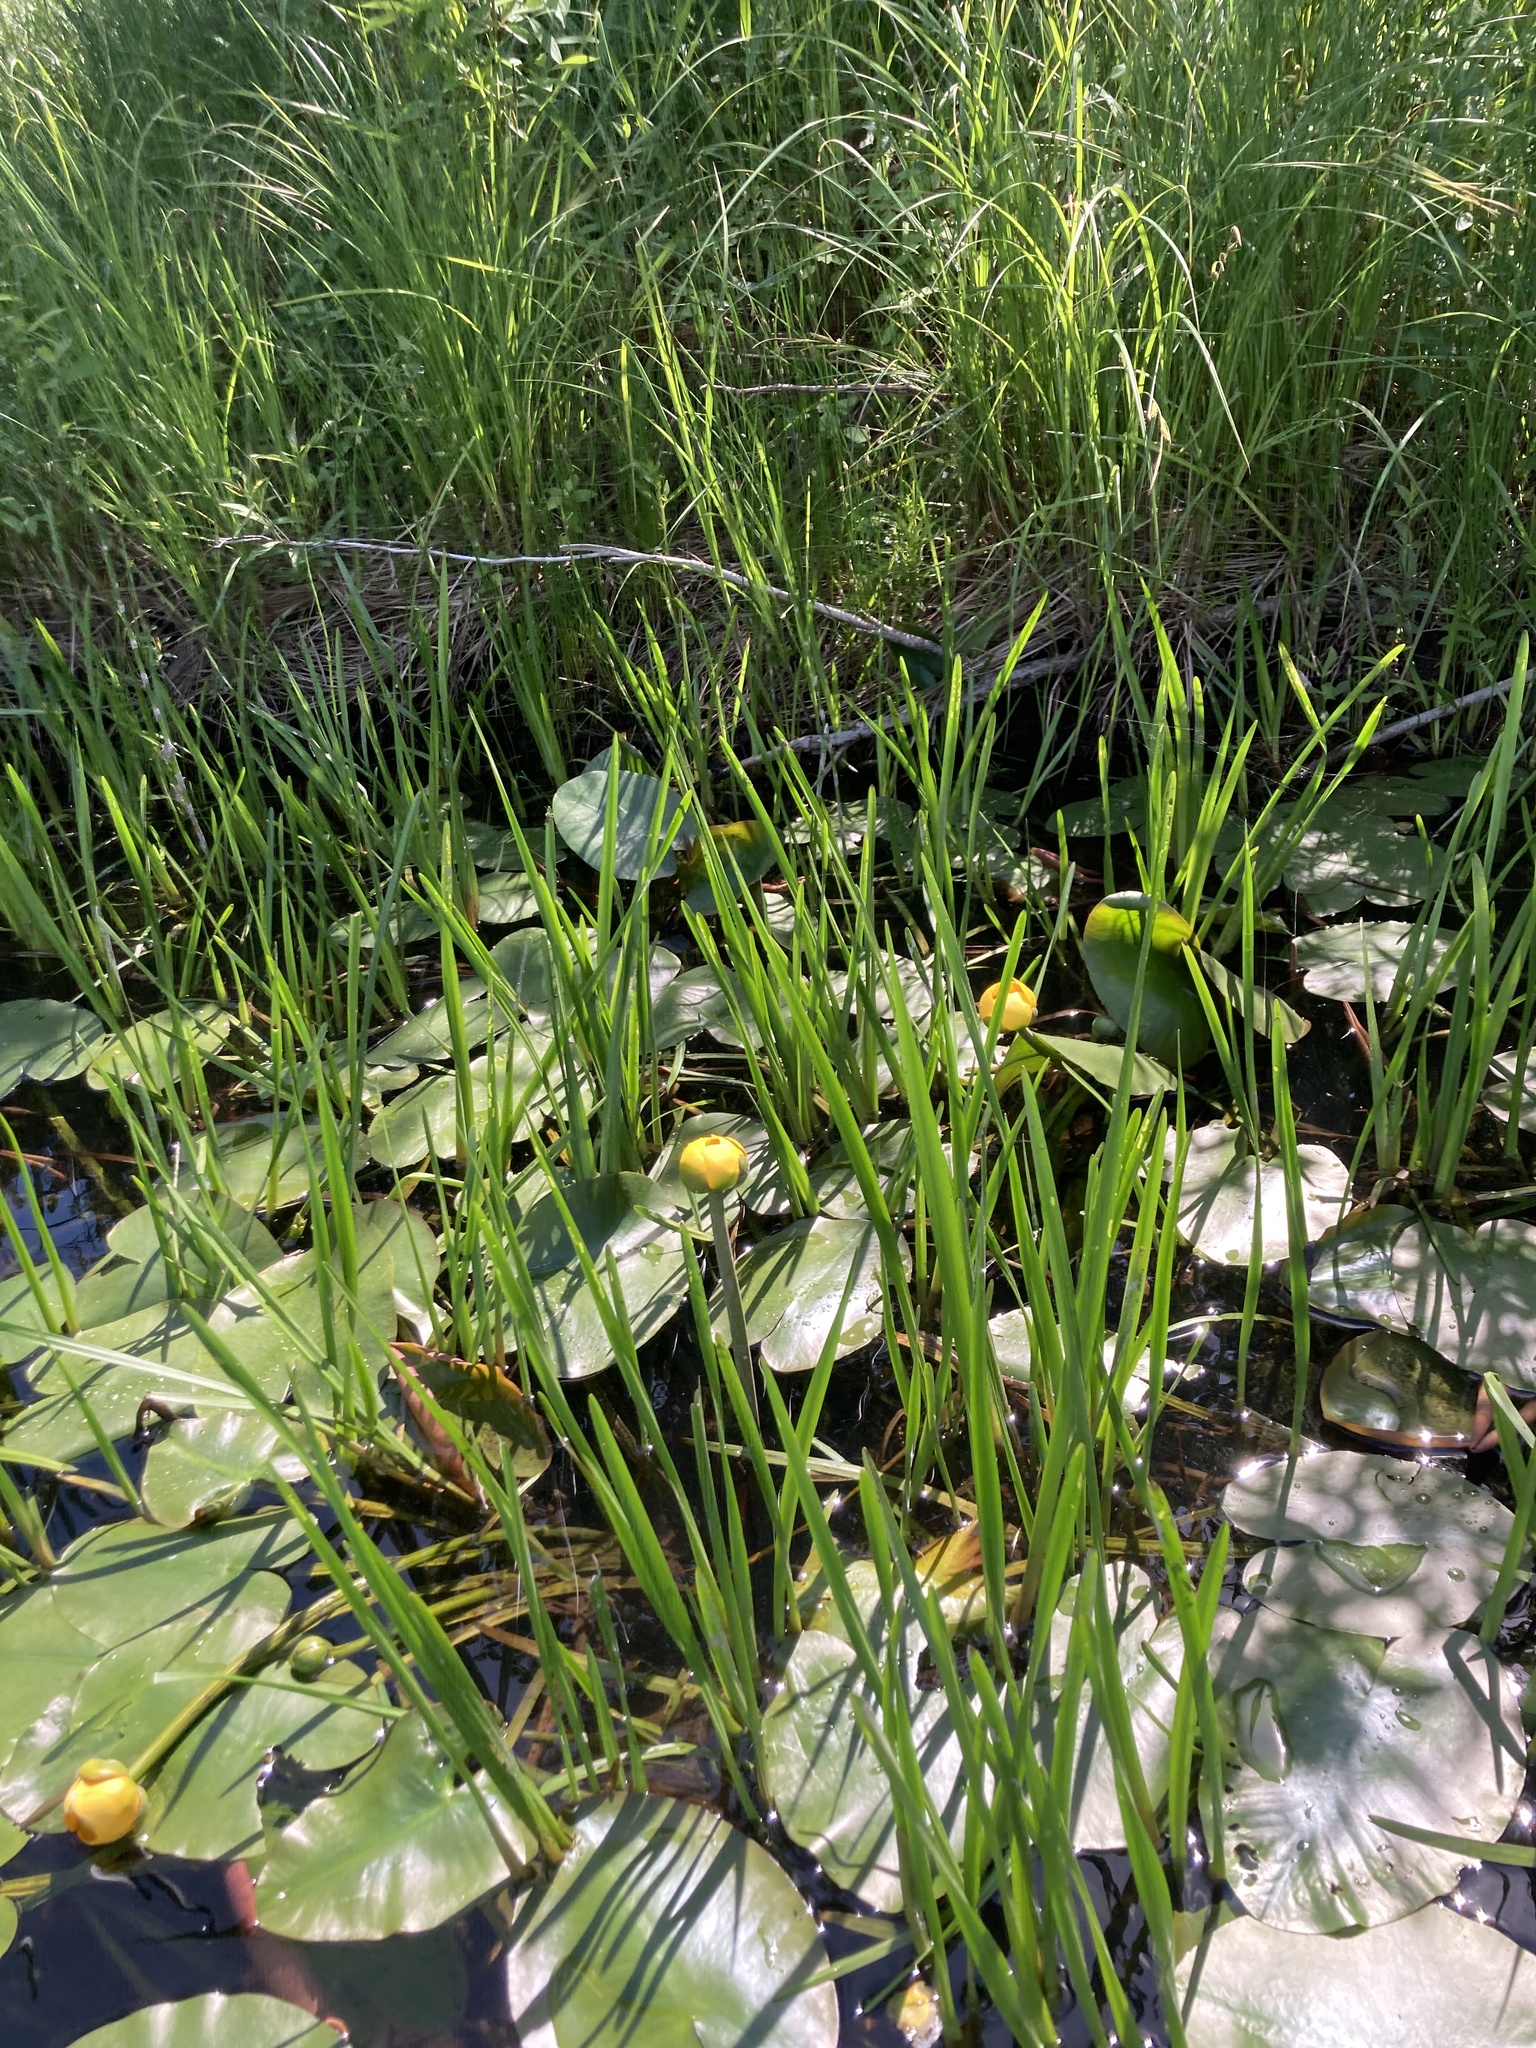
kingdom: Plantae
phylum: Tracheophyta
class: Magnoliopsida
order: Nymphaeales
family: Nymphaeaceae
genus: Nuphar
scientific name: Nuphar variegata
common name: Beaver-root
